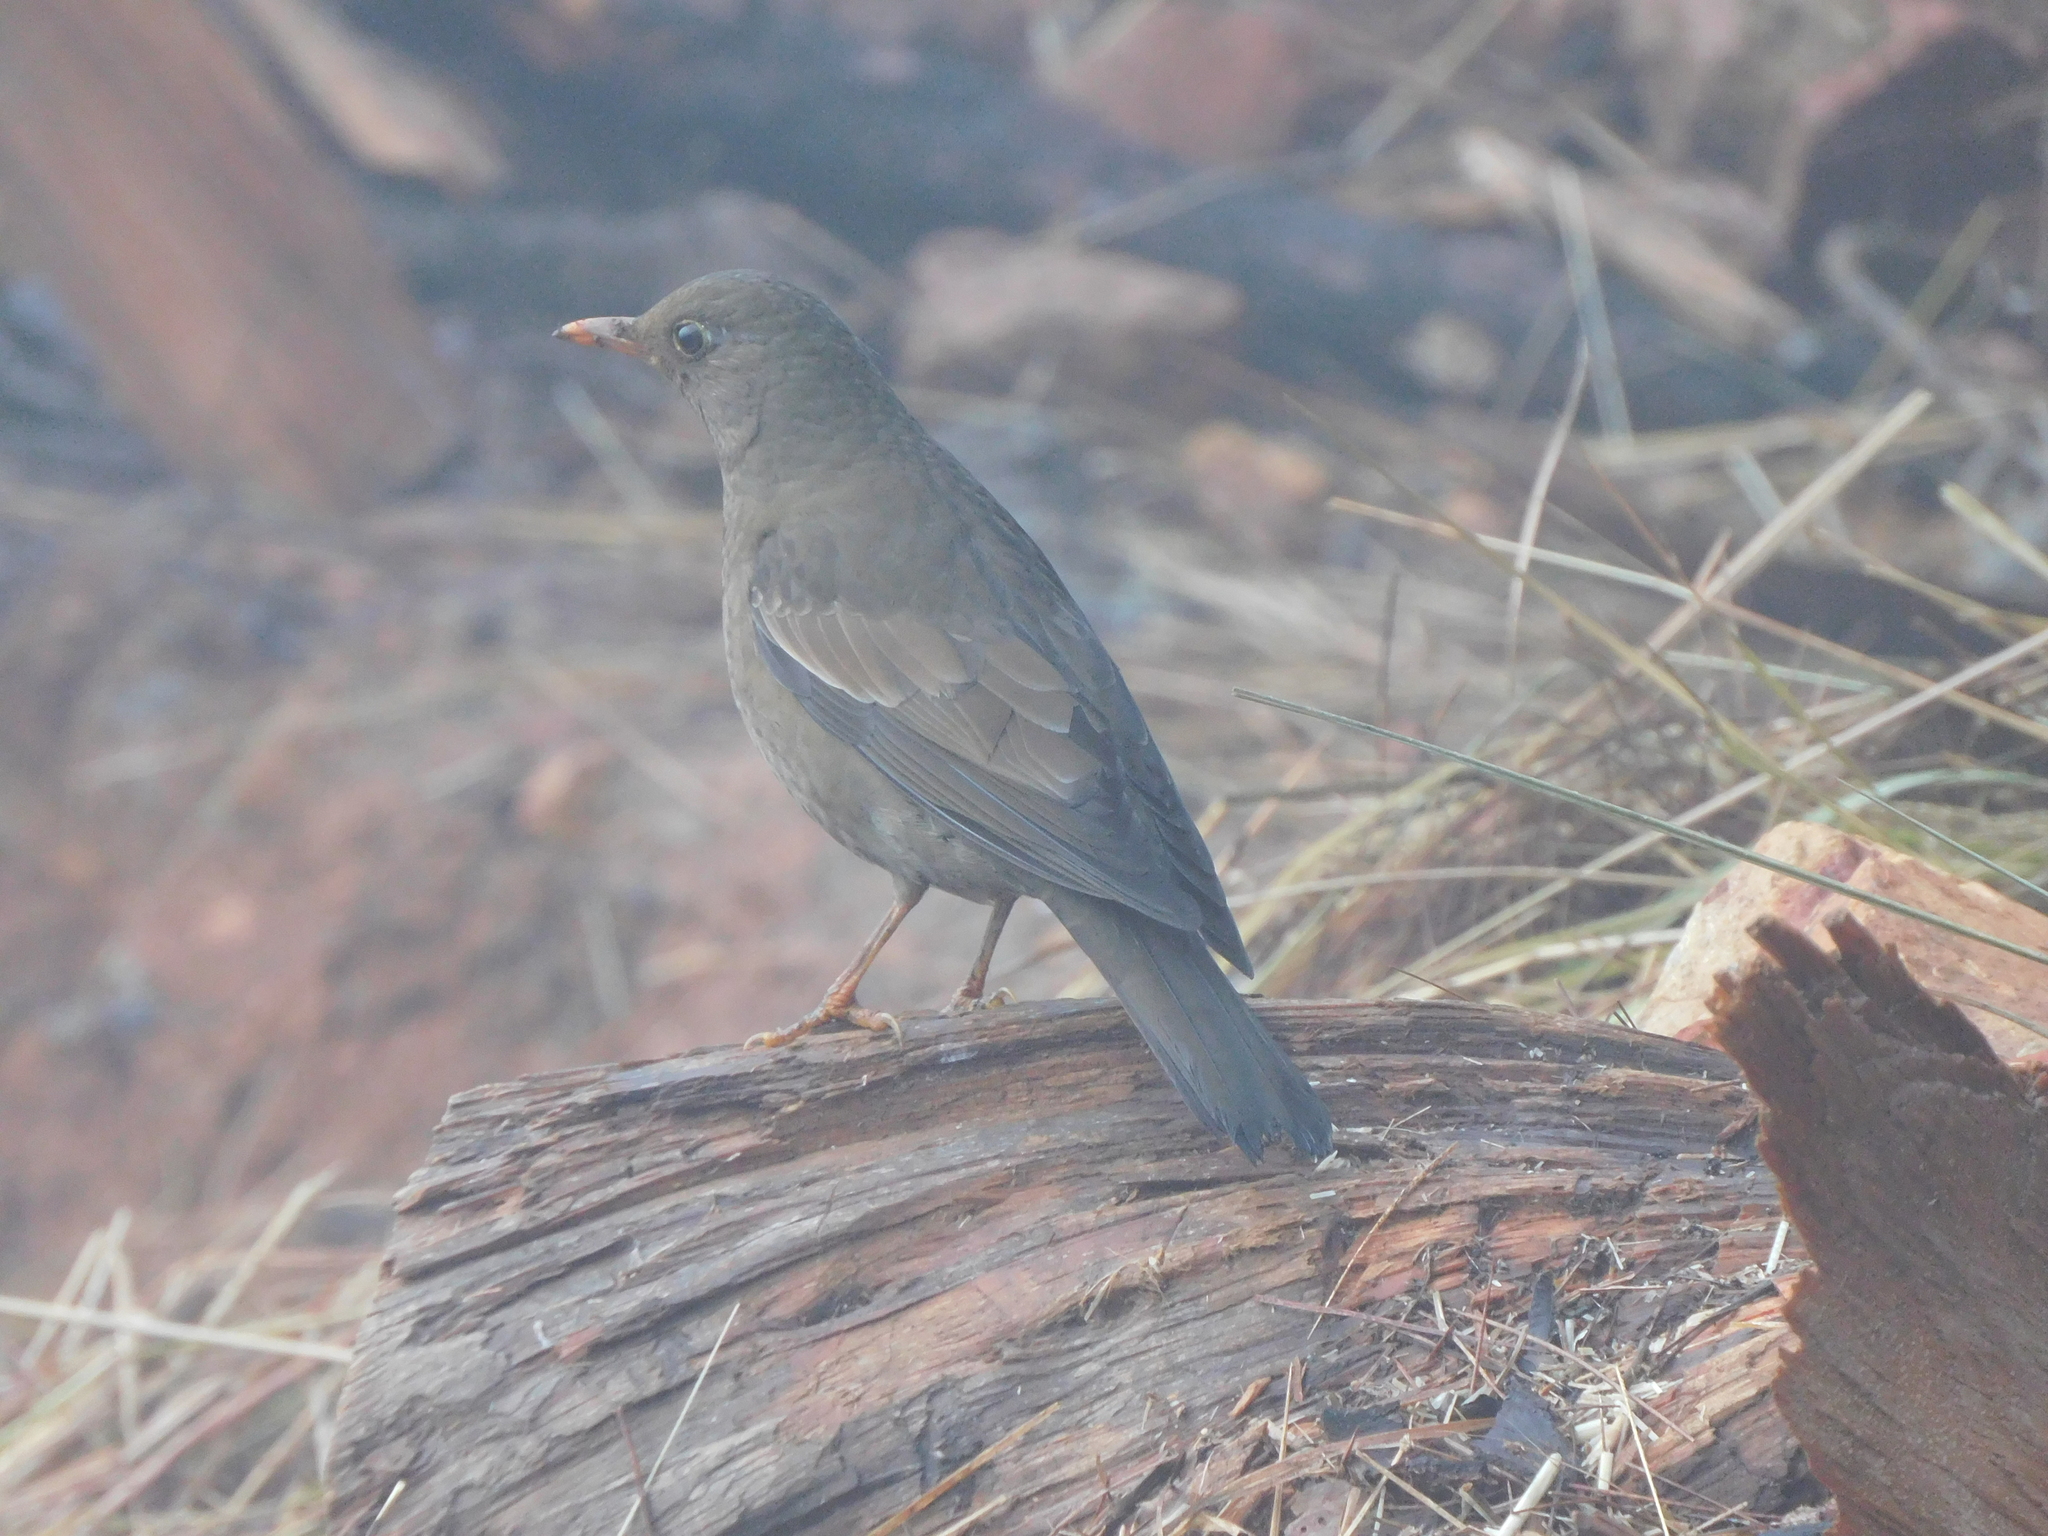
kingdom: Animalia
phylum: Chordata
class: Aves
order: Passeriformes
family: Turdidae
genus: Turdus
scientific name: Turdus boulboul
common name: Grey-winged blackbird
